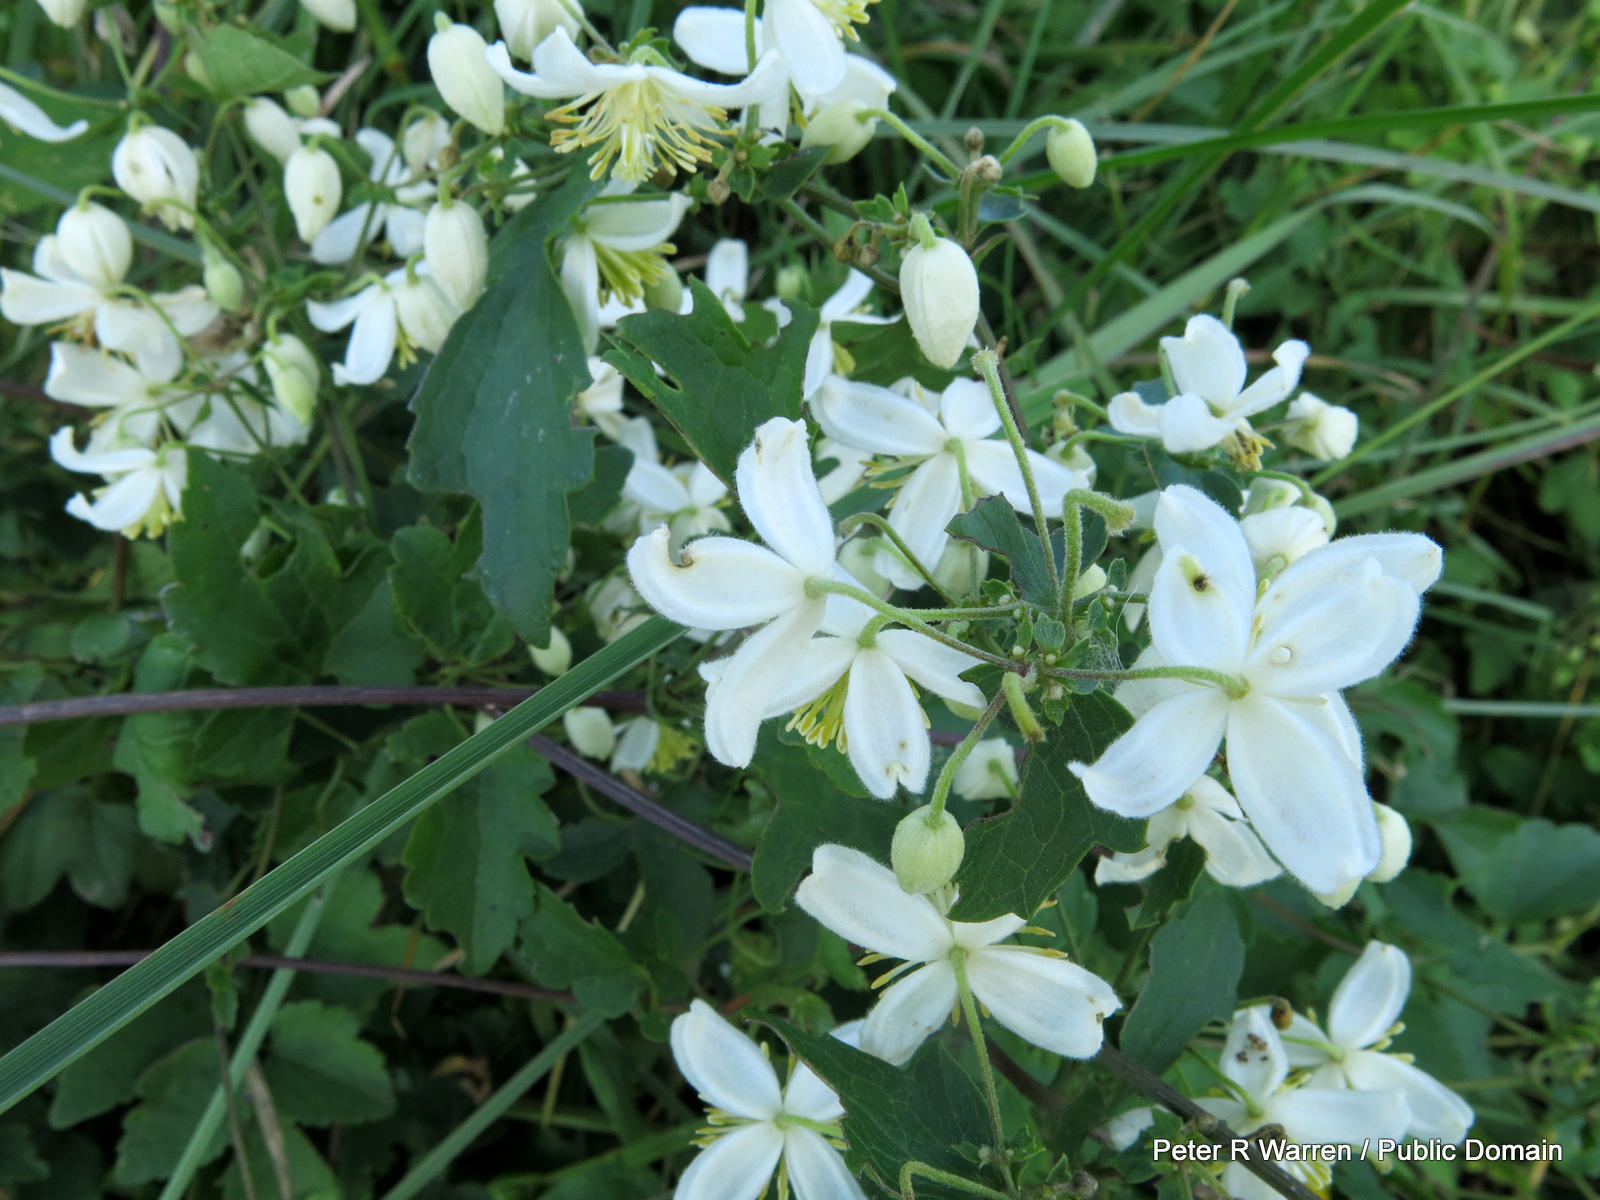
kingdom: Plantae
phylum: Tracheophyta
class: Magnoliopsida
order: Ranunculales
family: Ranunculaceae
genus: Clematis
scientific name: Clematis brachiata
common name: Traveler's-joy
